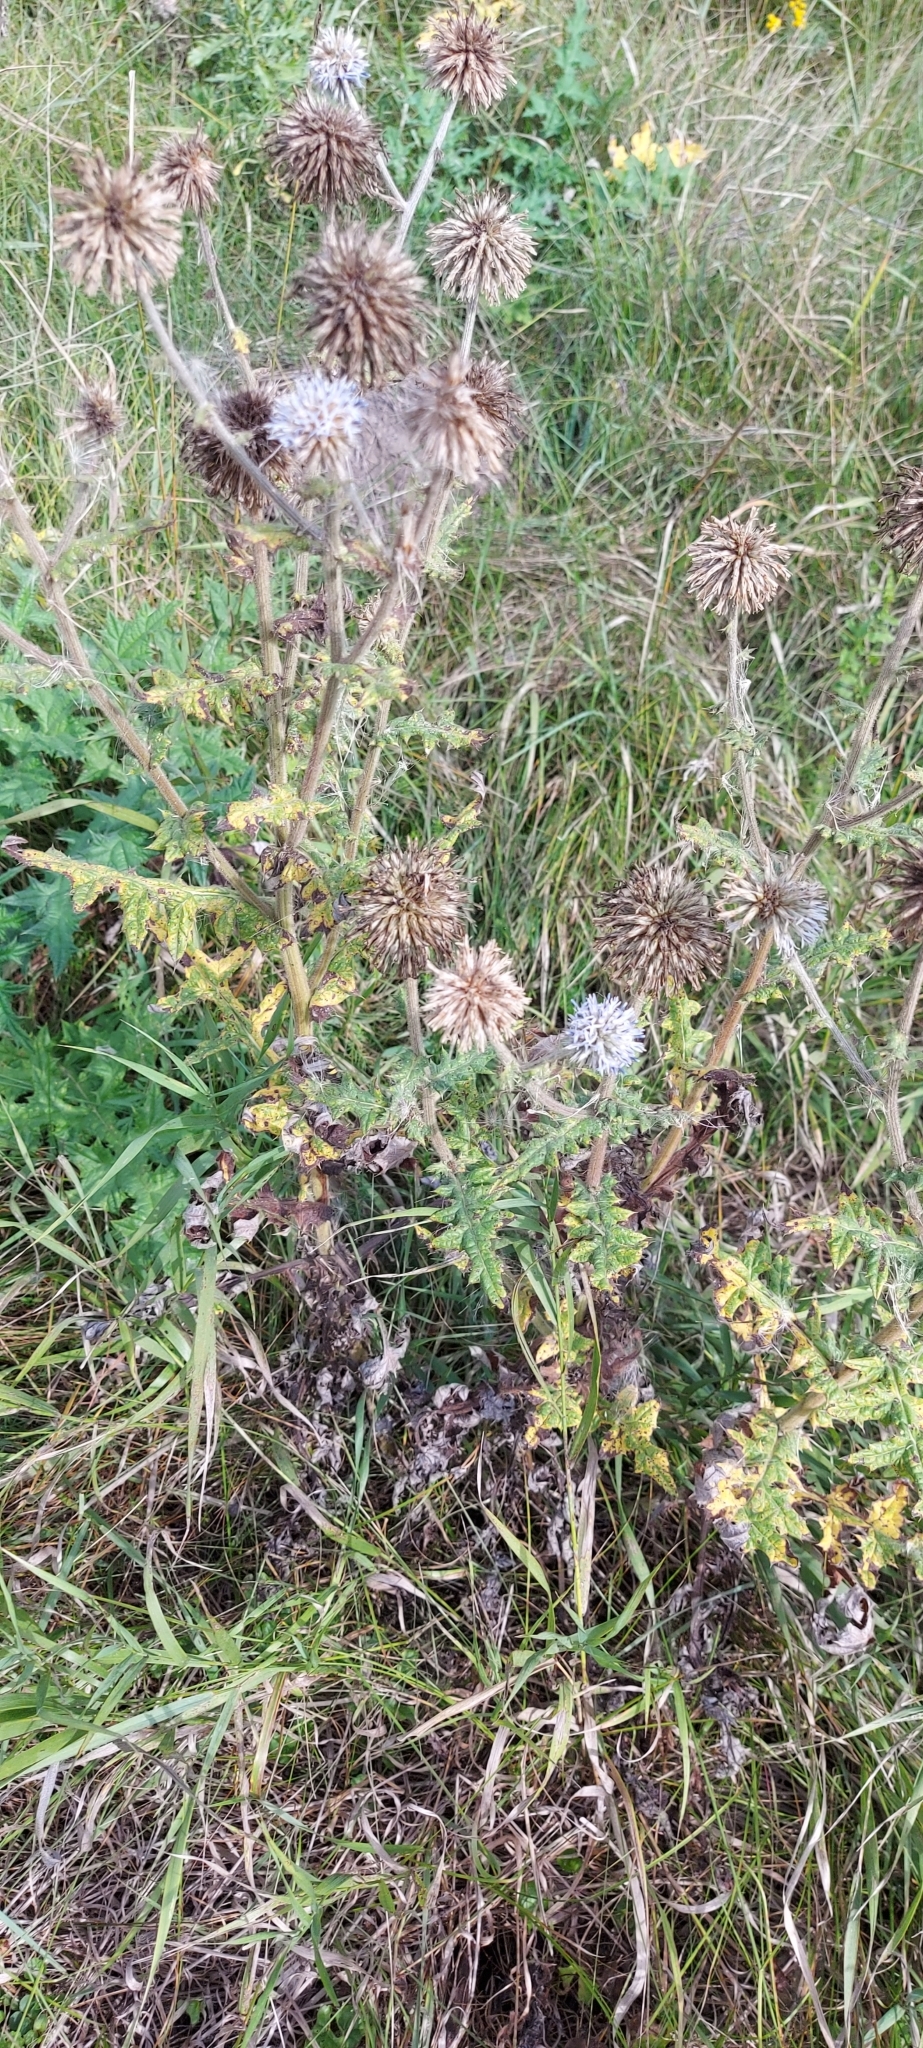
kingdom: Plantae
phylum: Tracheophyta
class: Magnoliopsida
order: Asterales
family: Asteraceae
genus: Echinops
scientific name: Echinops sphaerocephalus
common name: Glandular globe-thistle
